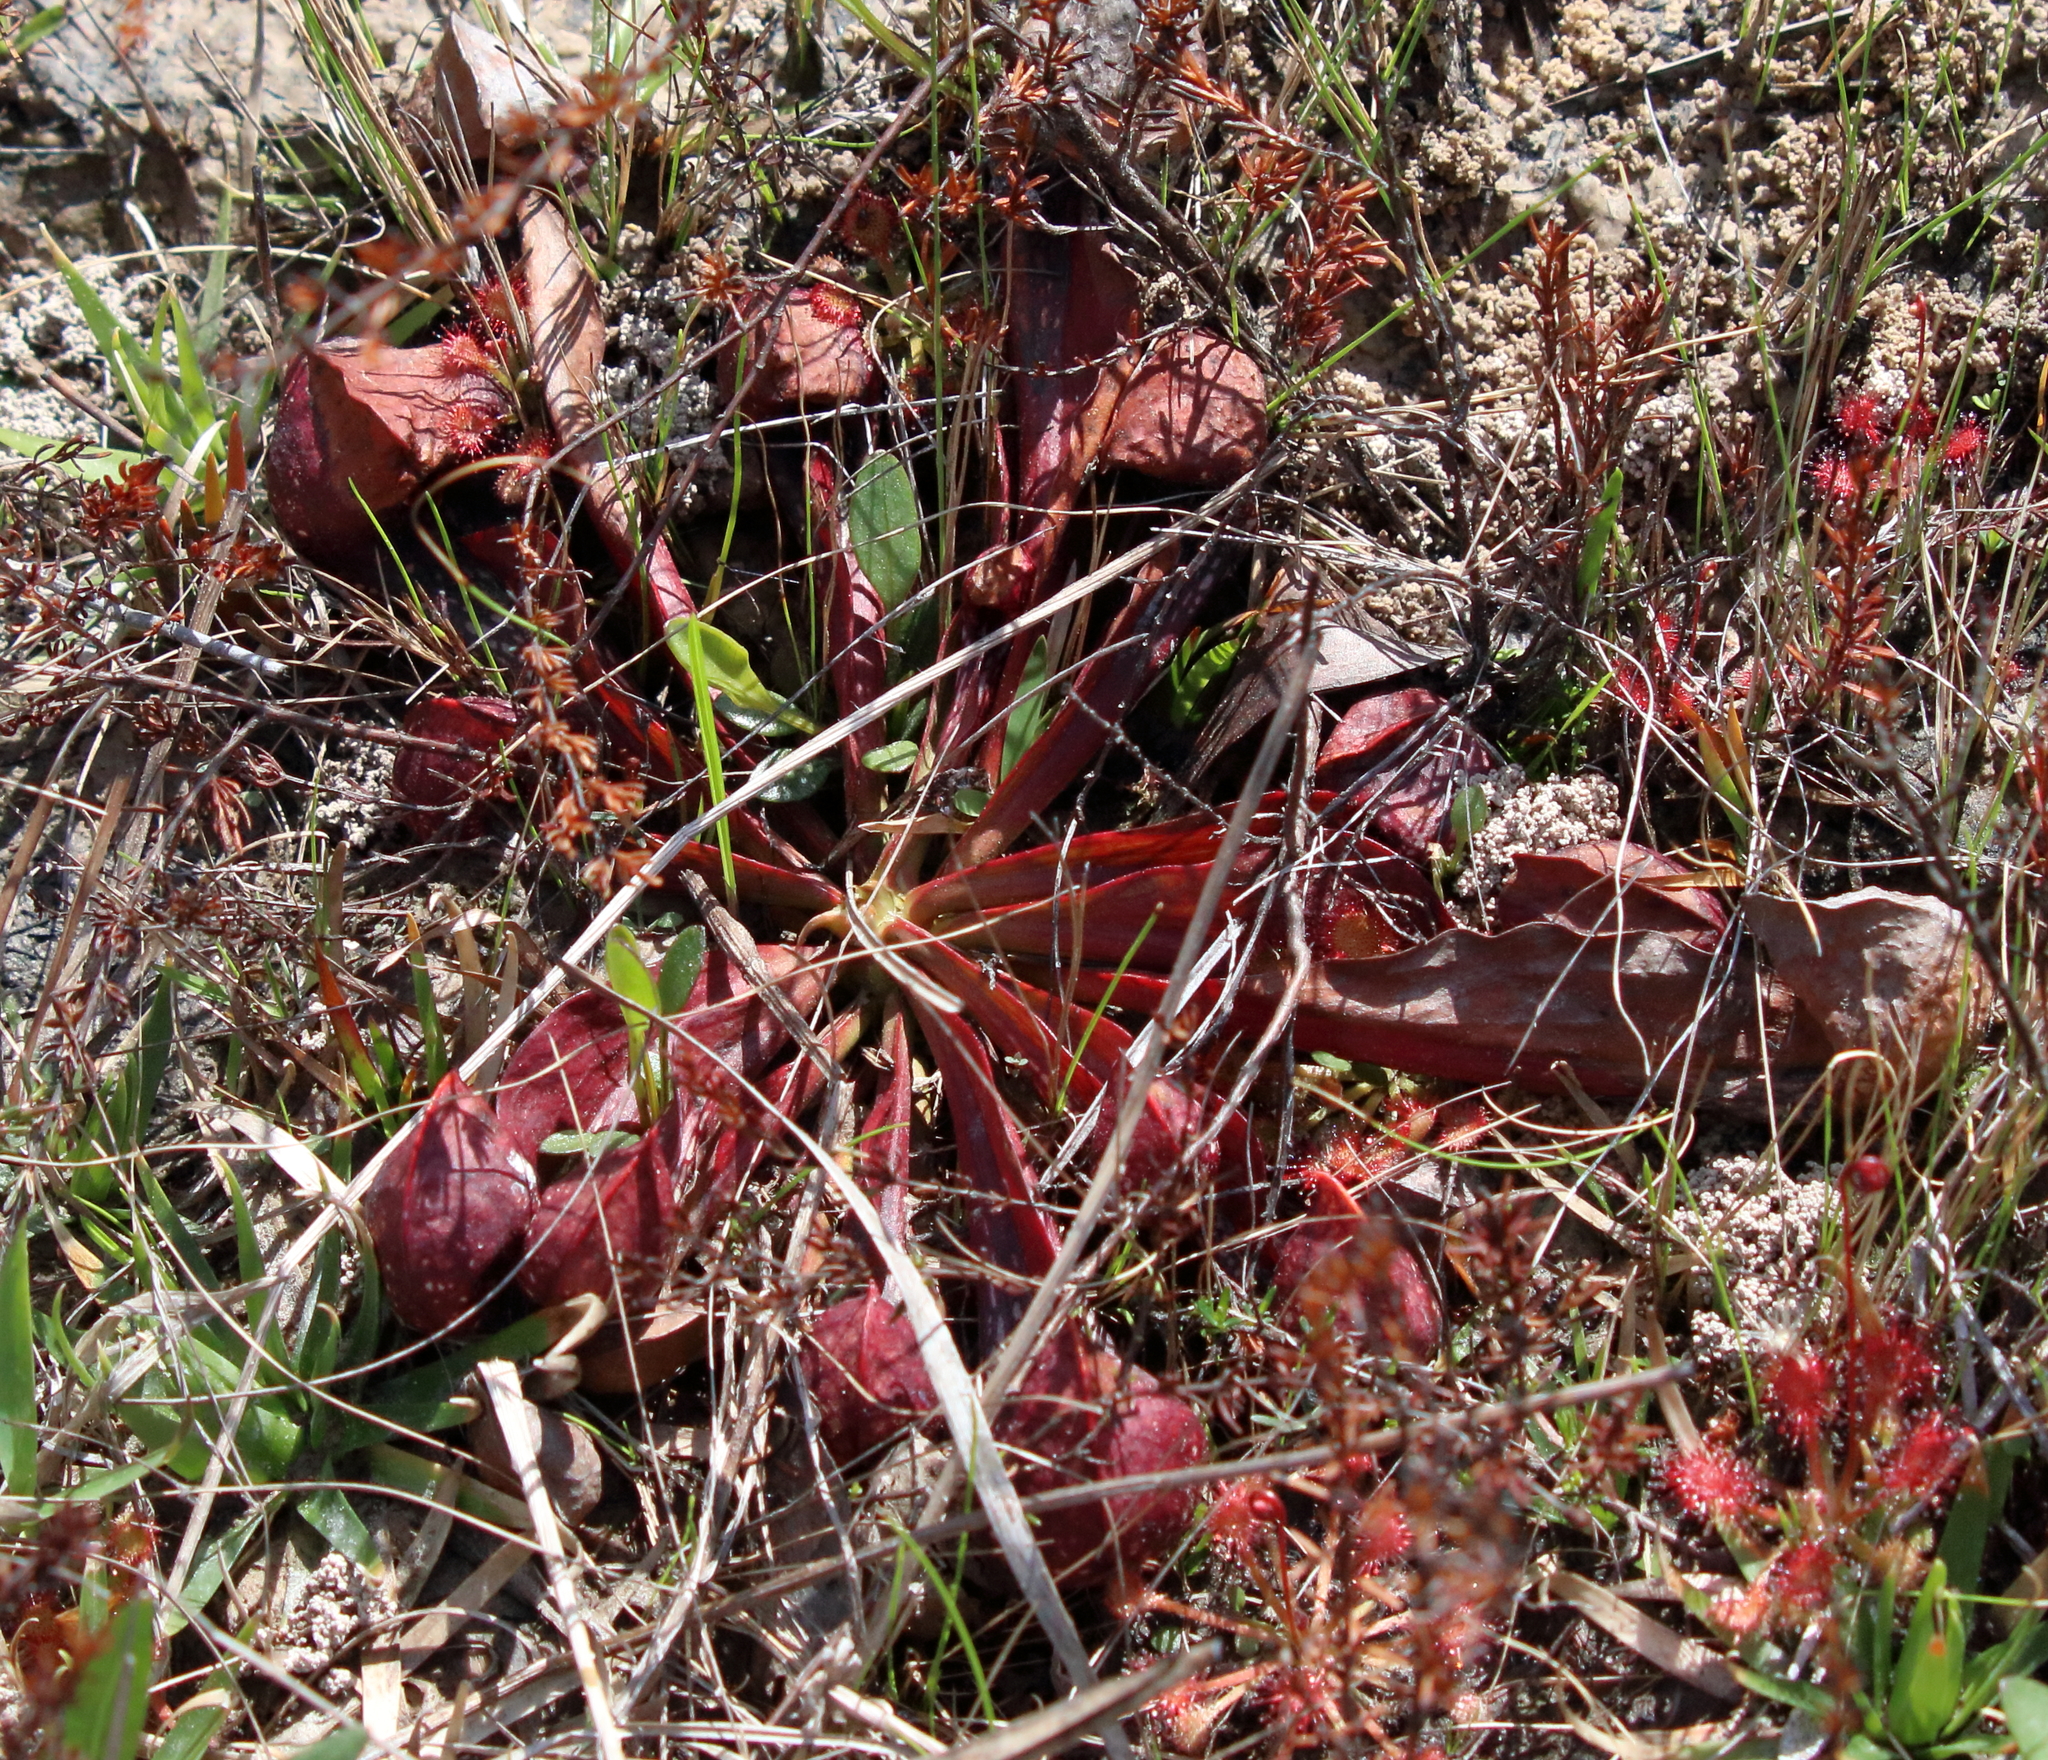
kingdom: Plantae
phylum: Tracheophyta
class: Magnoliopsida
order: Ericales
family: Sarraceniaceae
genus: Sarracenia
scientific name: Sarracenia psittacina
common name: Parrot pitcherplant
